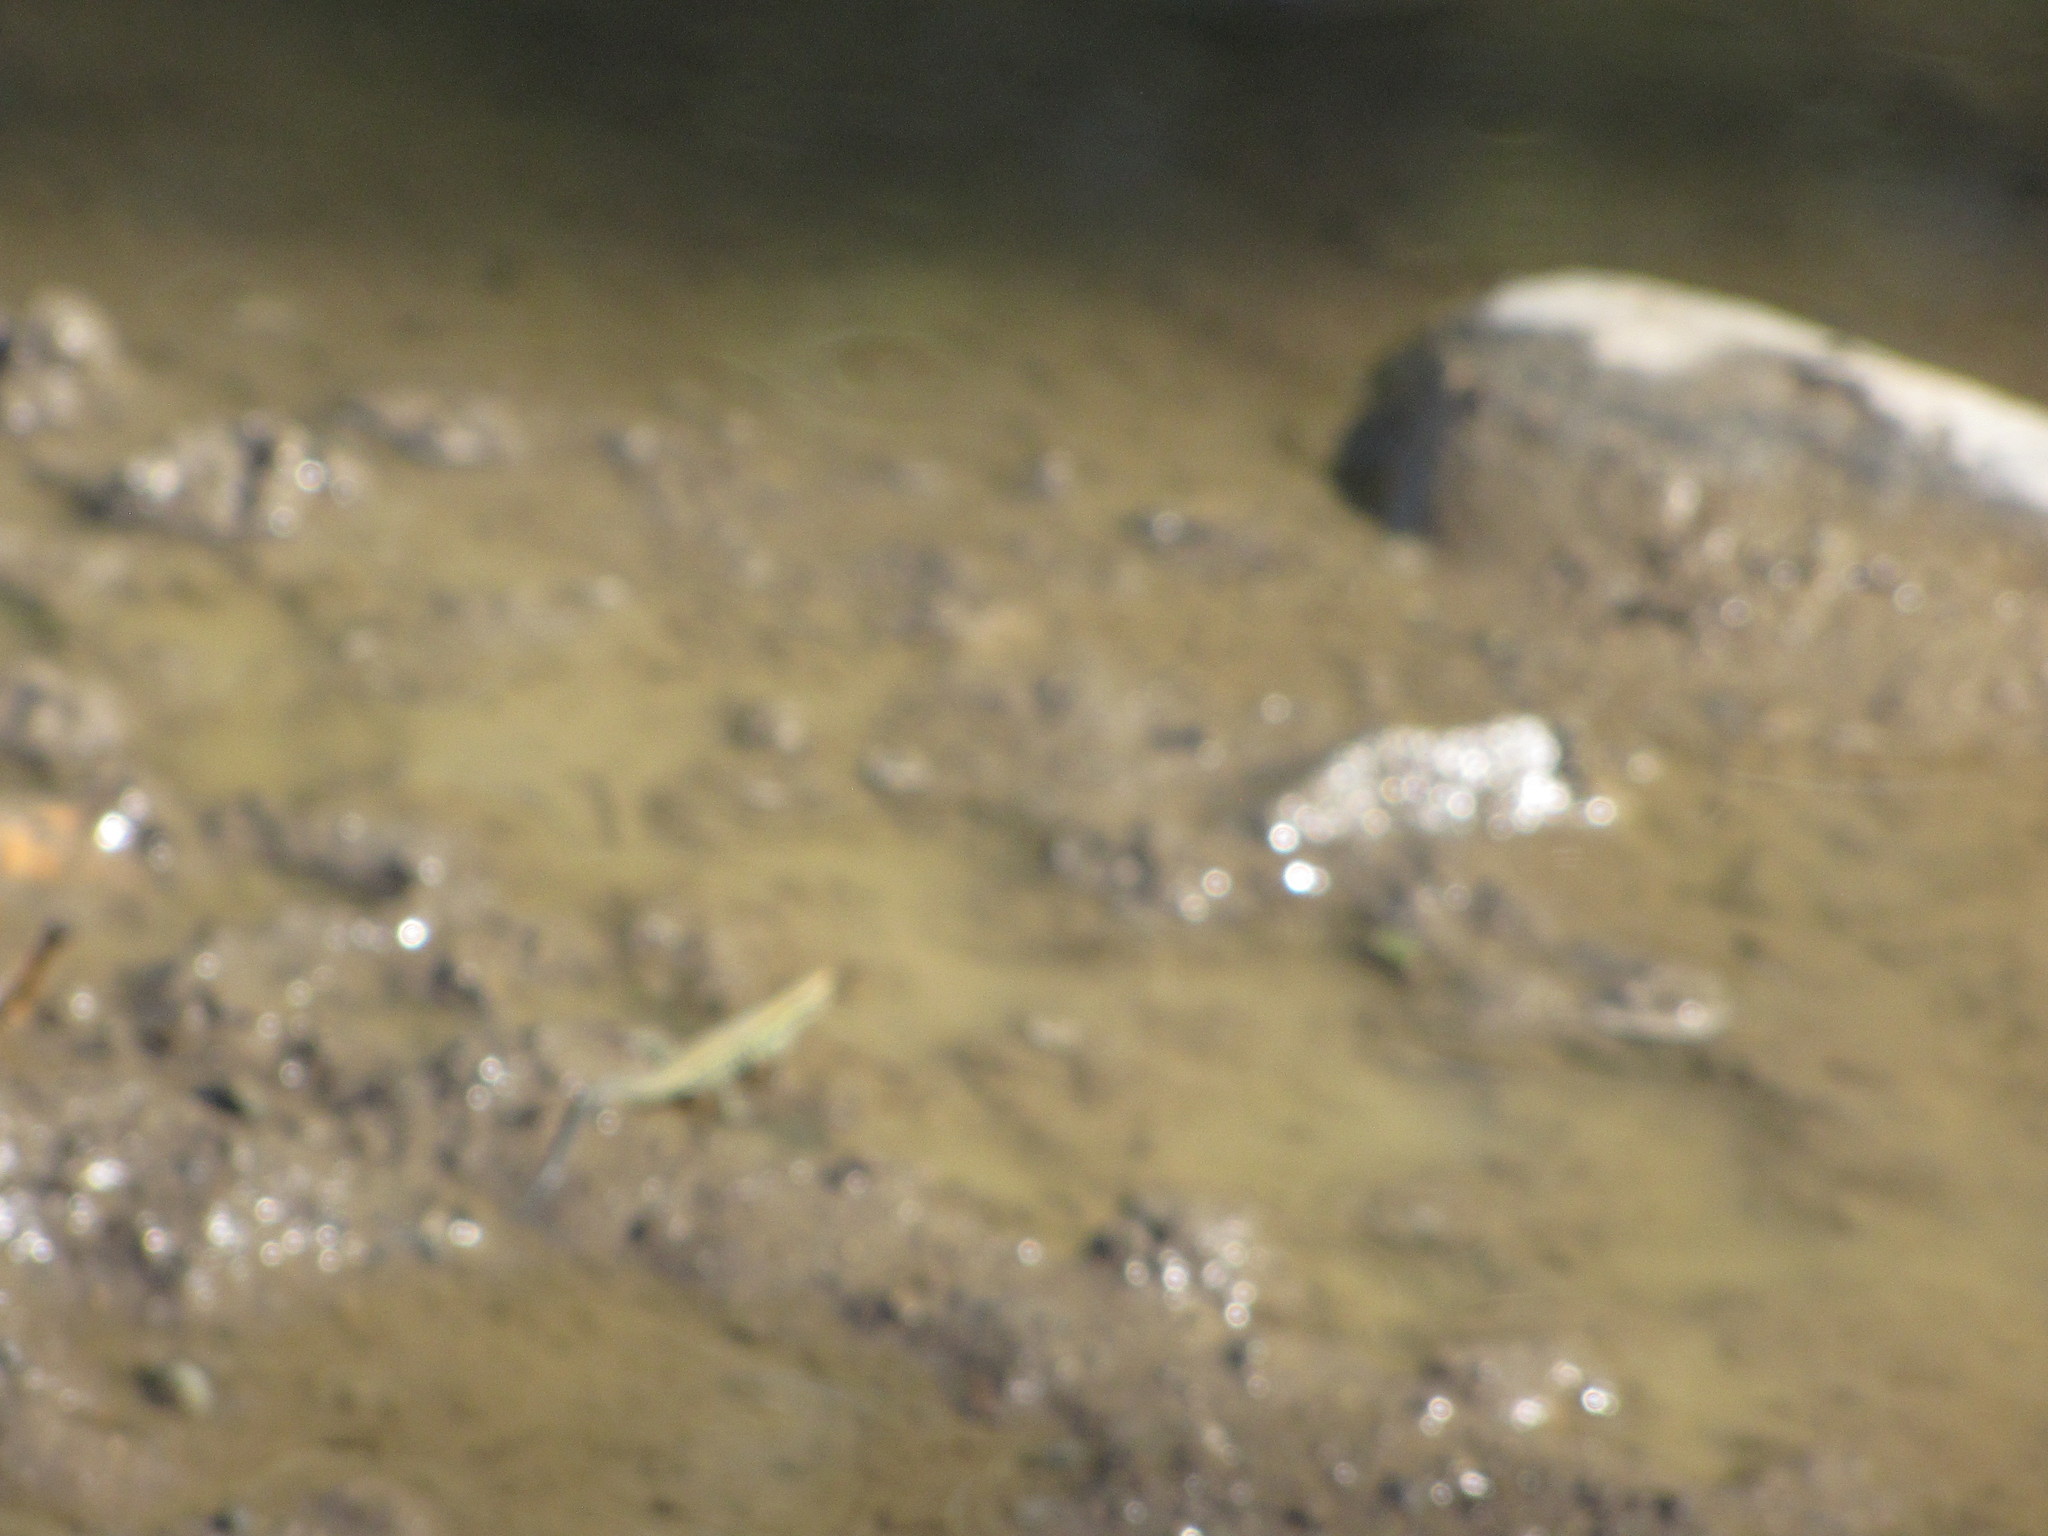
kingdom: Animalia
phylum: Chordata
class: Squamata
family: Lacertidae
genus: Podarcis
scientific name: Podarcis muralis
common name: Common wall lizard
